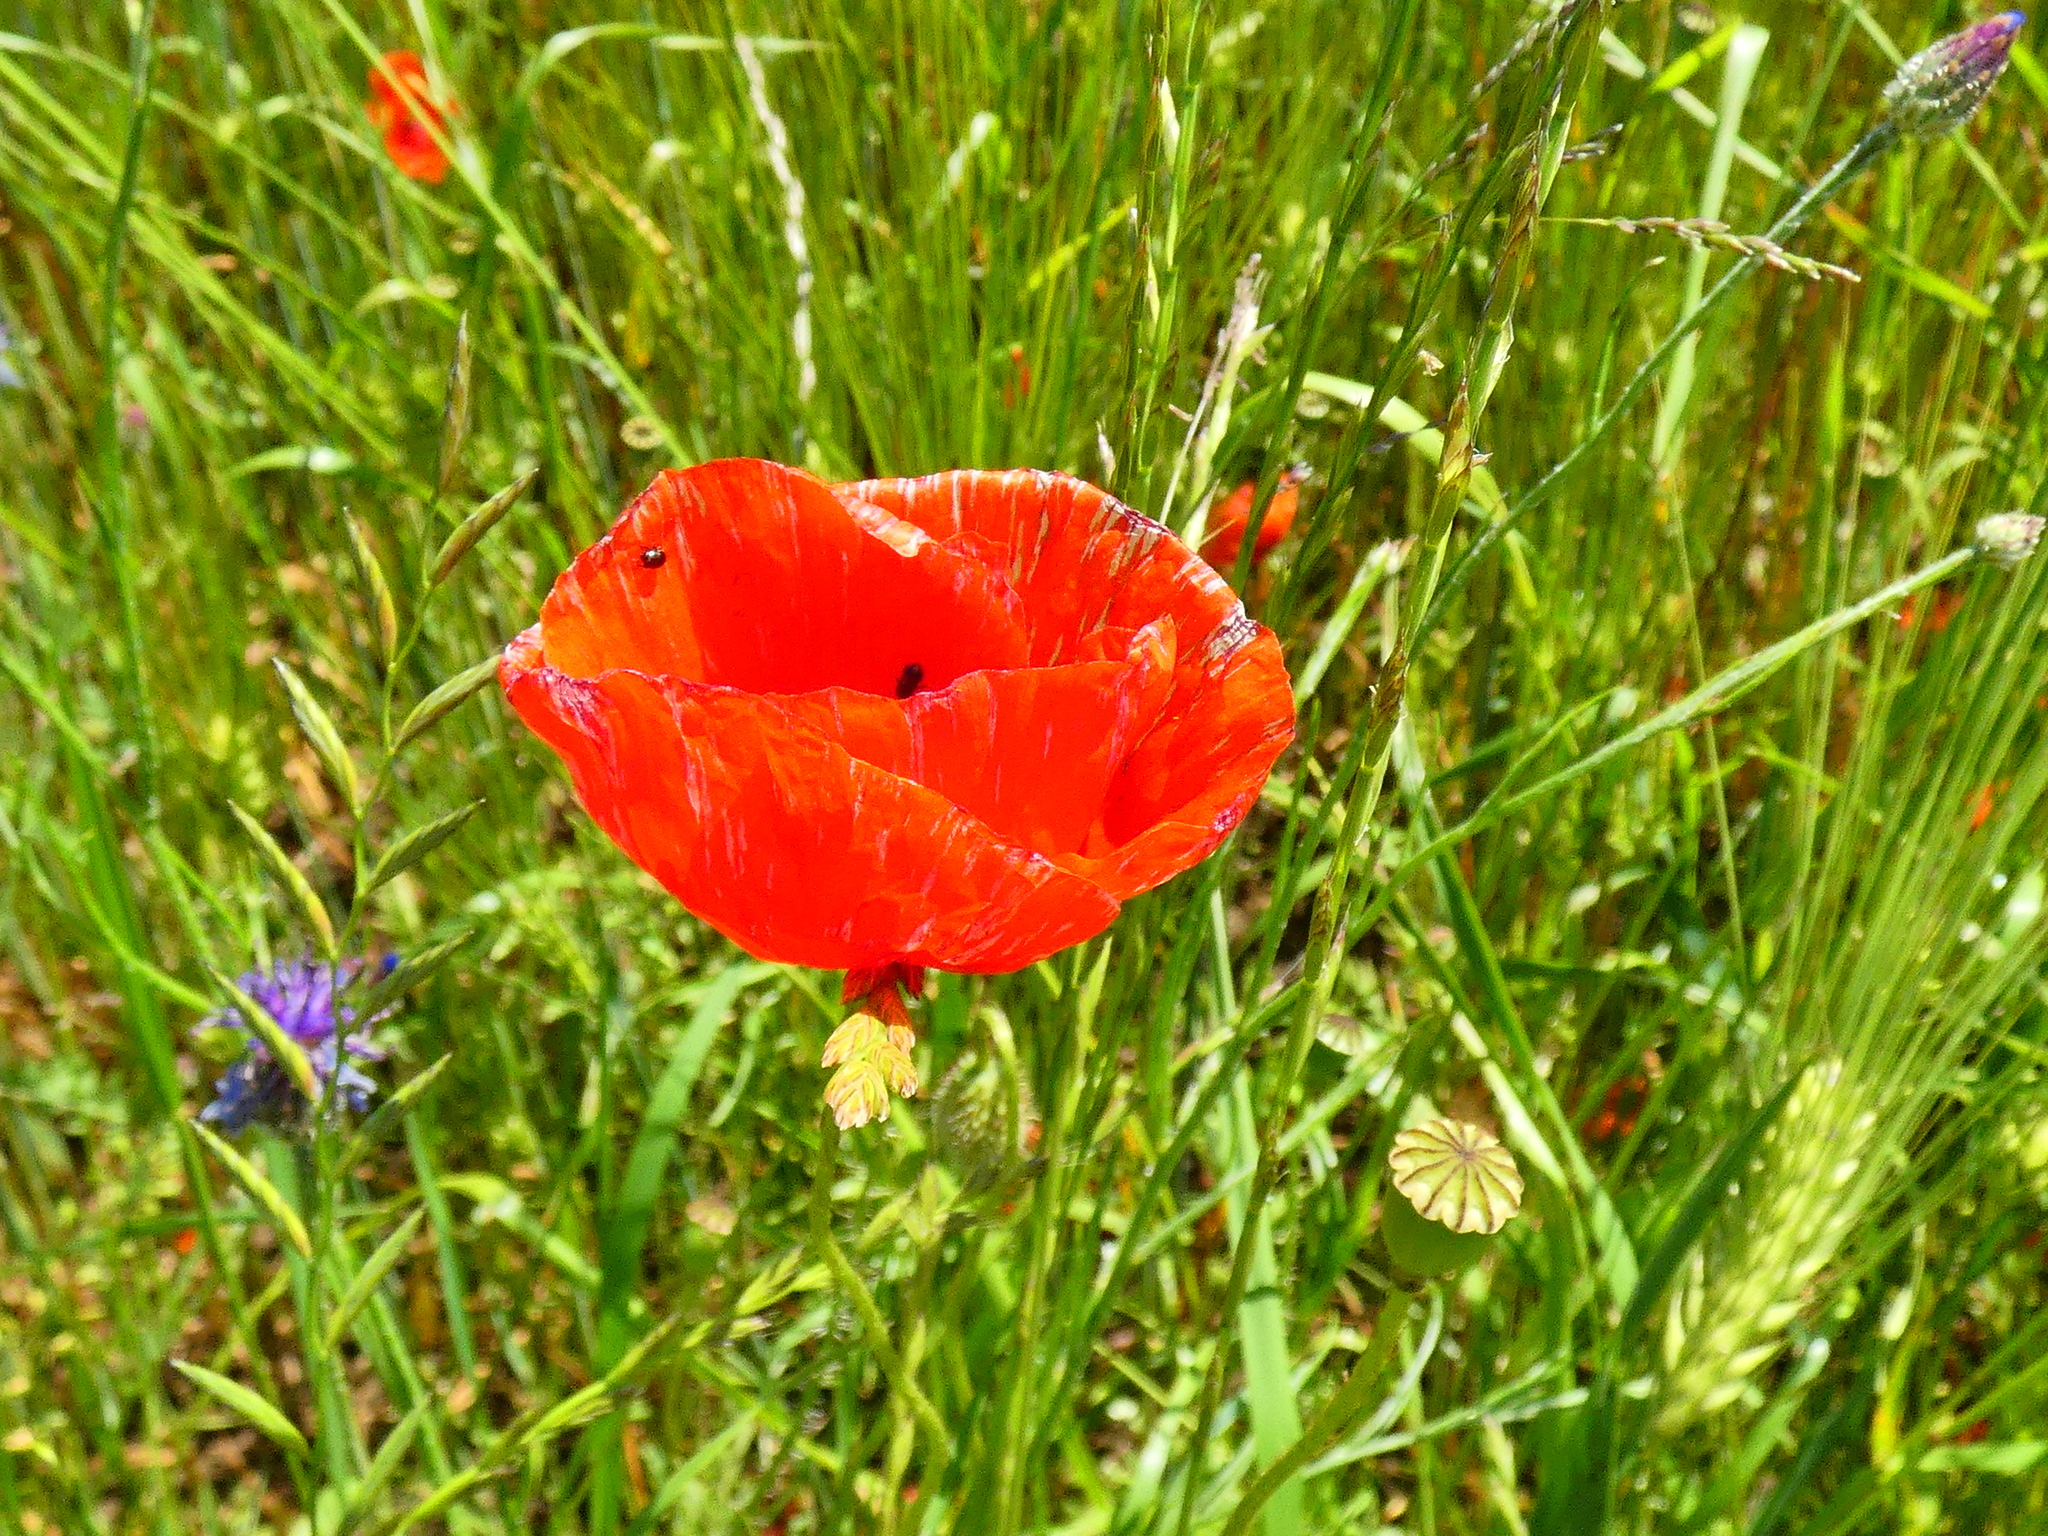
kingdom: Plantae
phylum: Tracheophyta
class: Magnoliopsida
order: Ranunculales
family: Papaveraceae
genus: Papaver
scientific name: Papaver rhoeas
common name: Corn poppy
